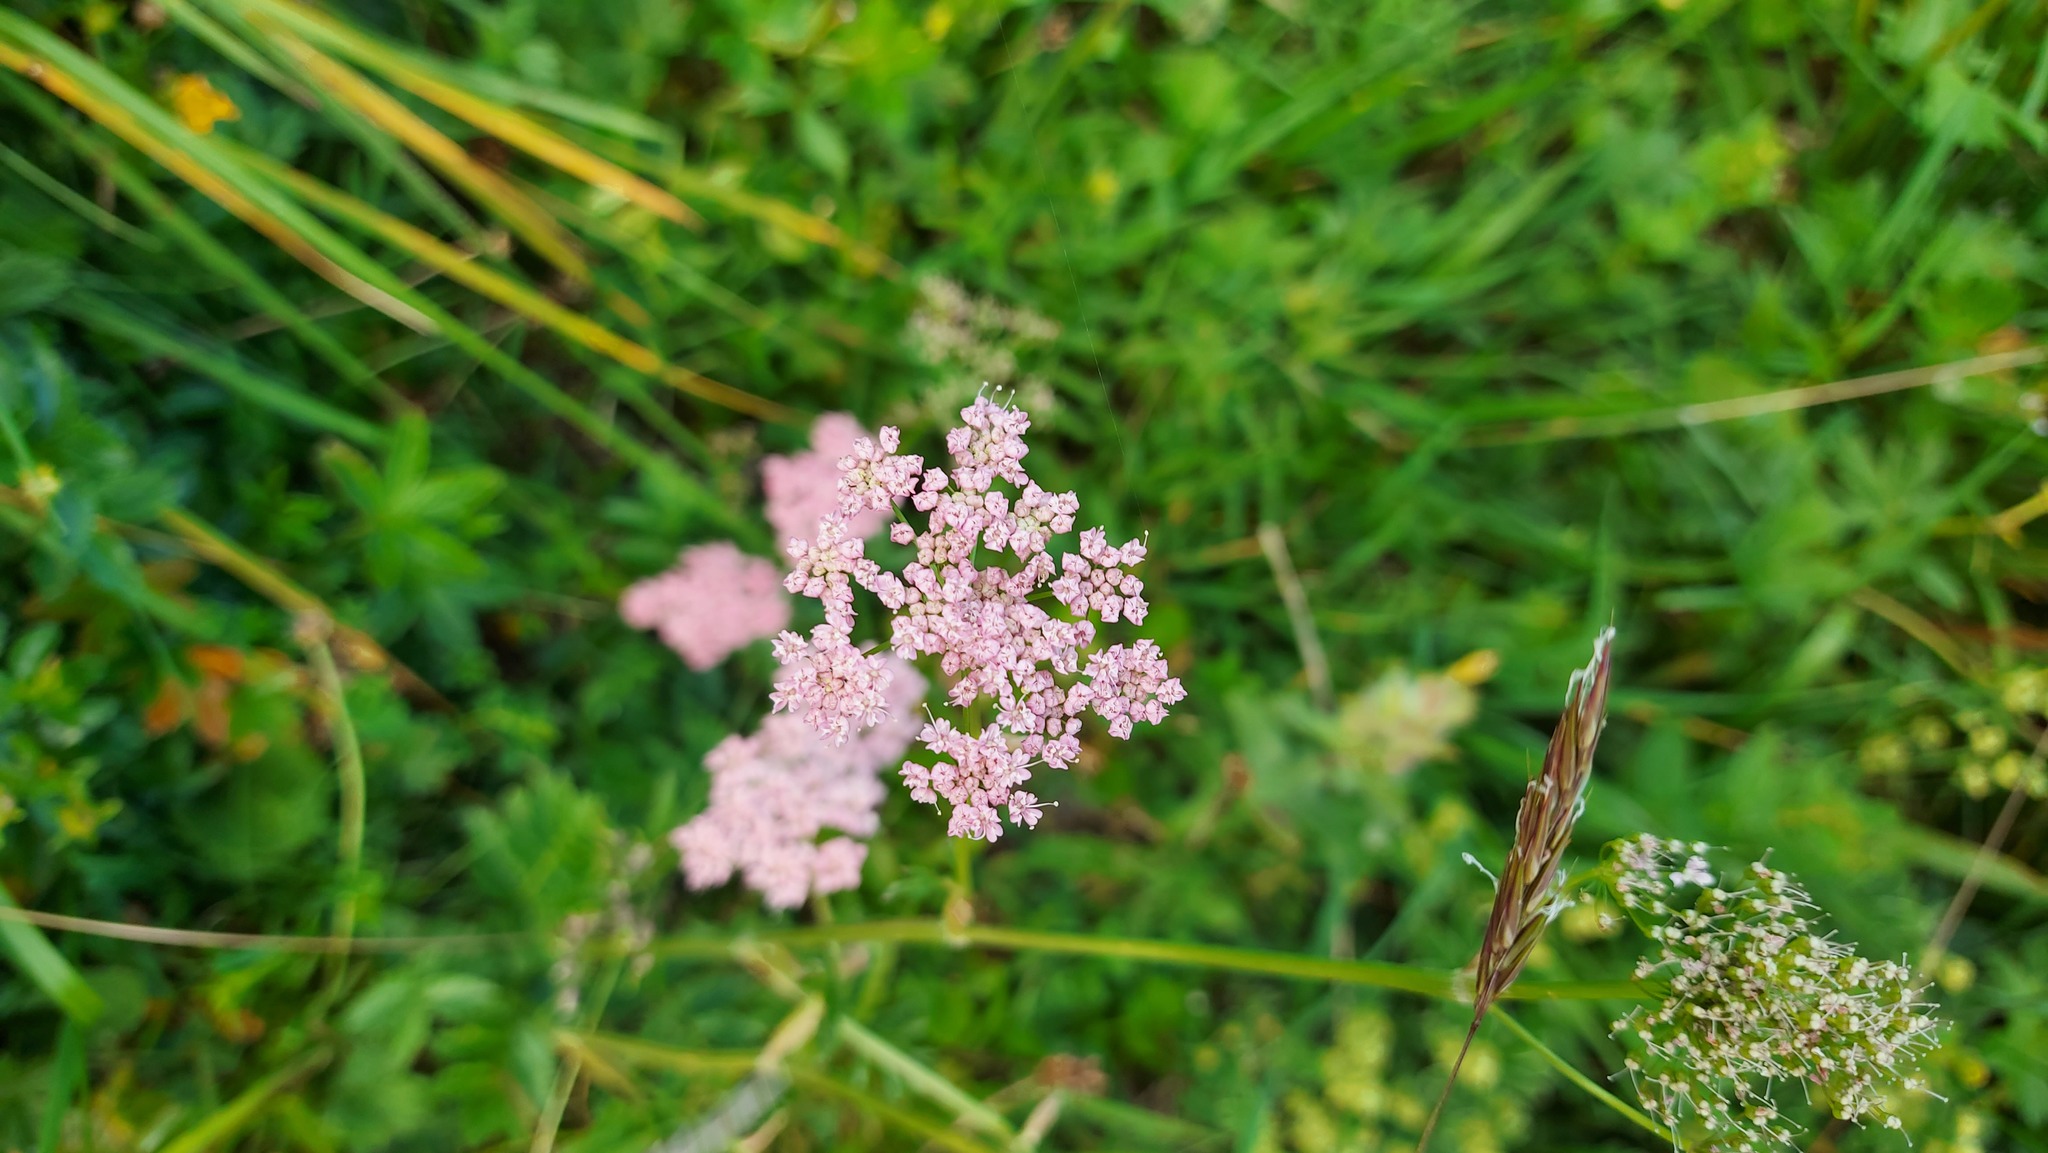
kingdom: Plantae
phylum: Tracheophyta
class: Magnoliopsida
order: Apiales
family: Apiaceae
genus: Carum
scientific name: Carum carvi
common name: Caraway
